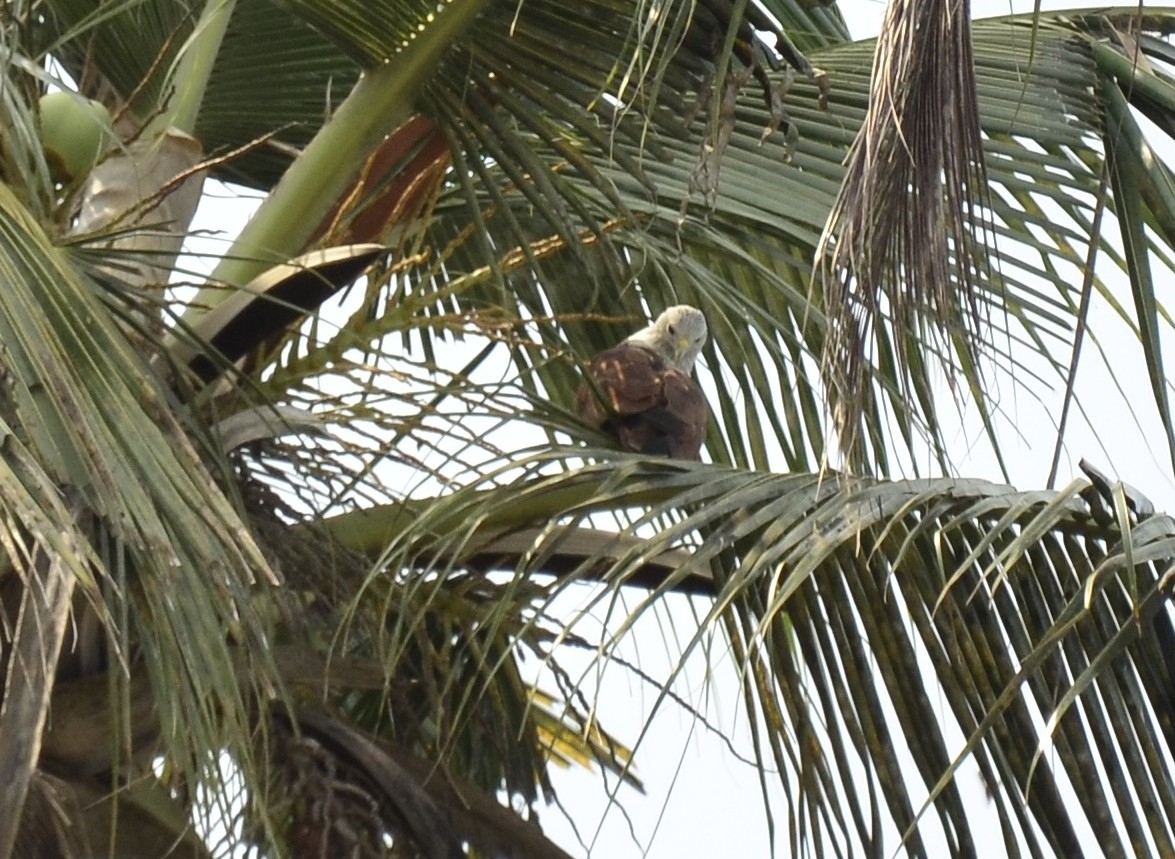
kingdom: Animalia
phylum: Chordata
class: Aves
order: Accipitriformes
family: Accipitridae
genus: Haliastur
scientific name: Haliastur indus
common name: Brahminy kite
